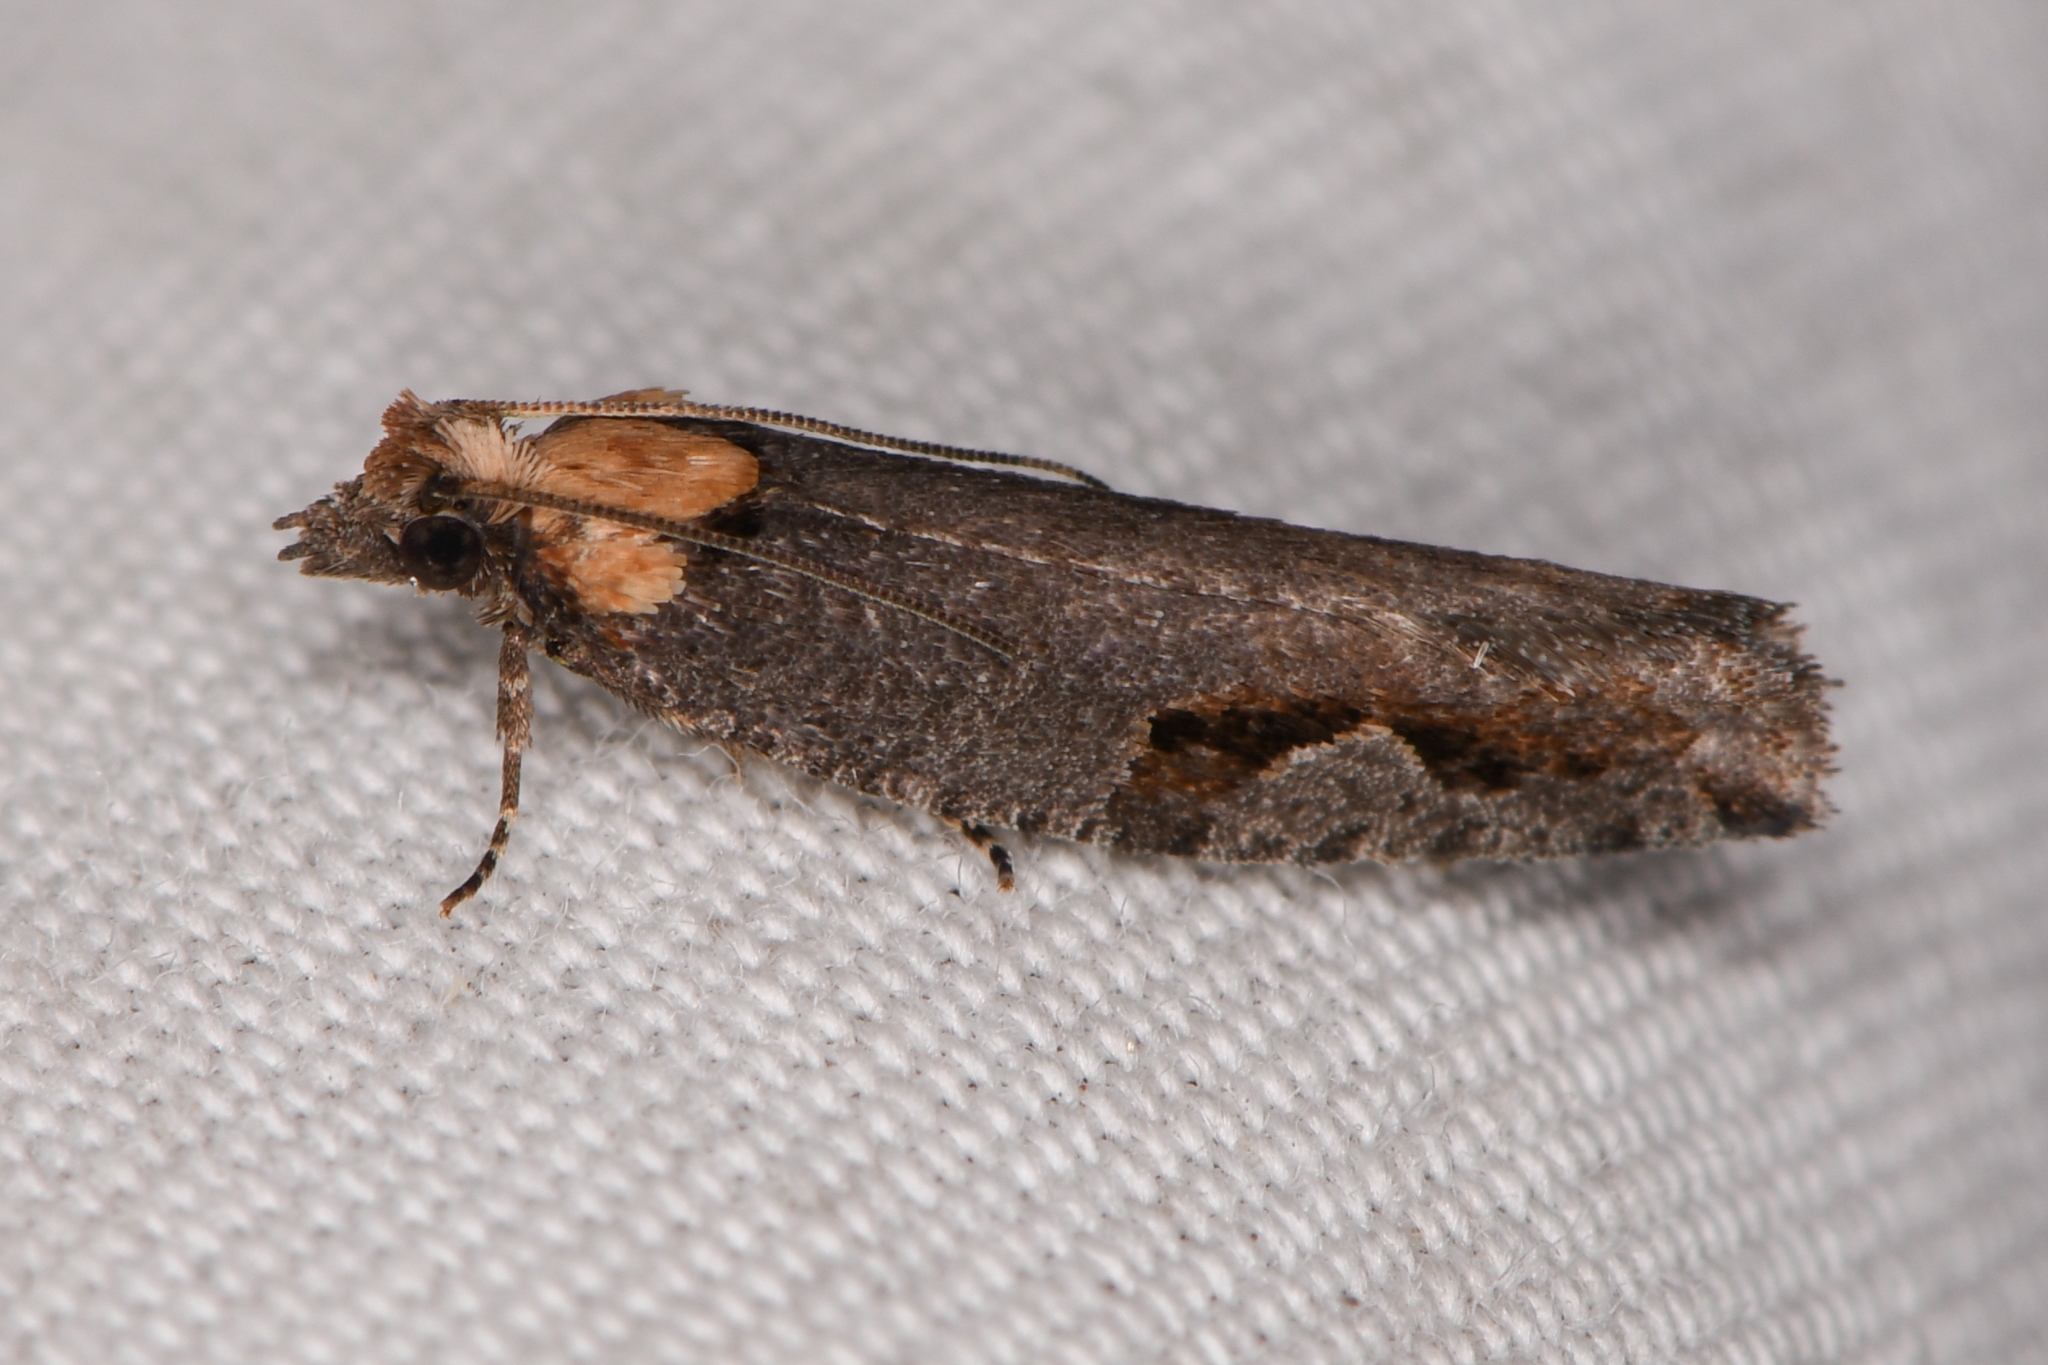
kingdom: Animalia
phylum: Arthropoda
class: Insecta
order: Lepidoptera
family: Tortricidae
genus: Epinotia
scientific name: Epinotia signiferana
